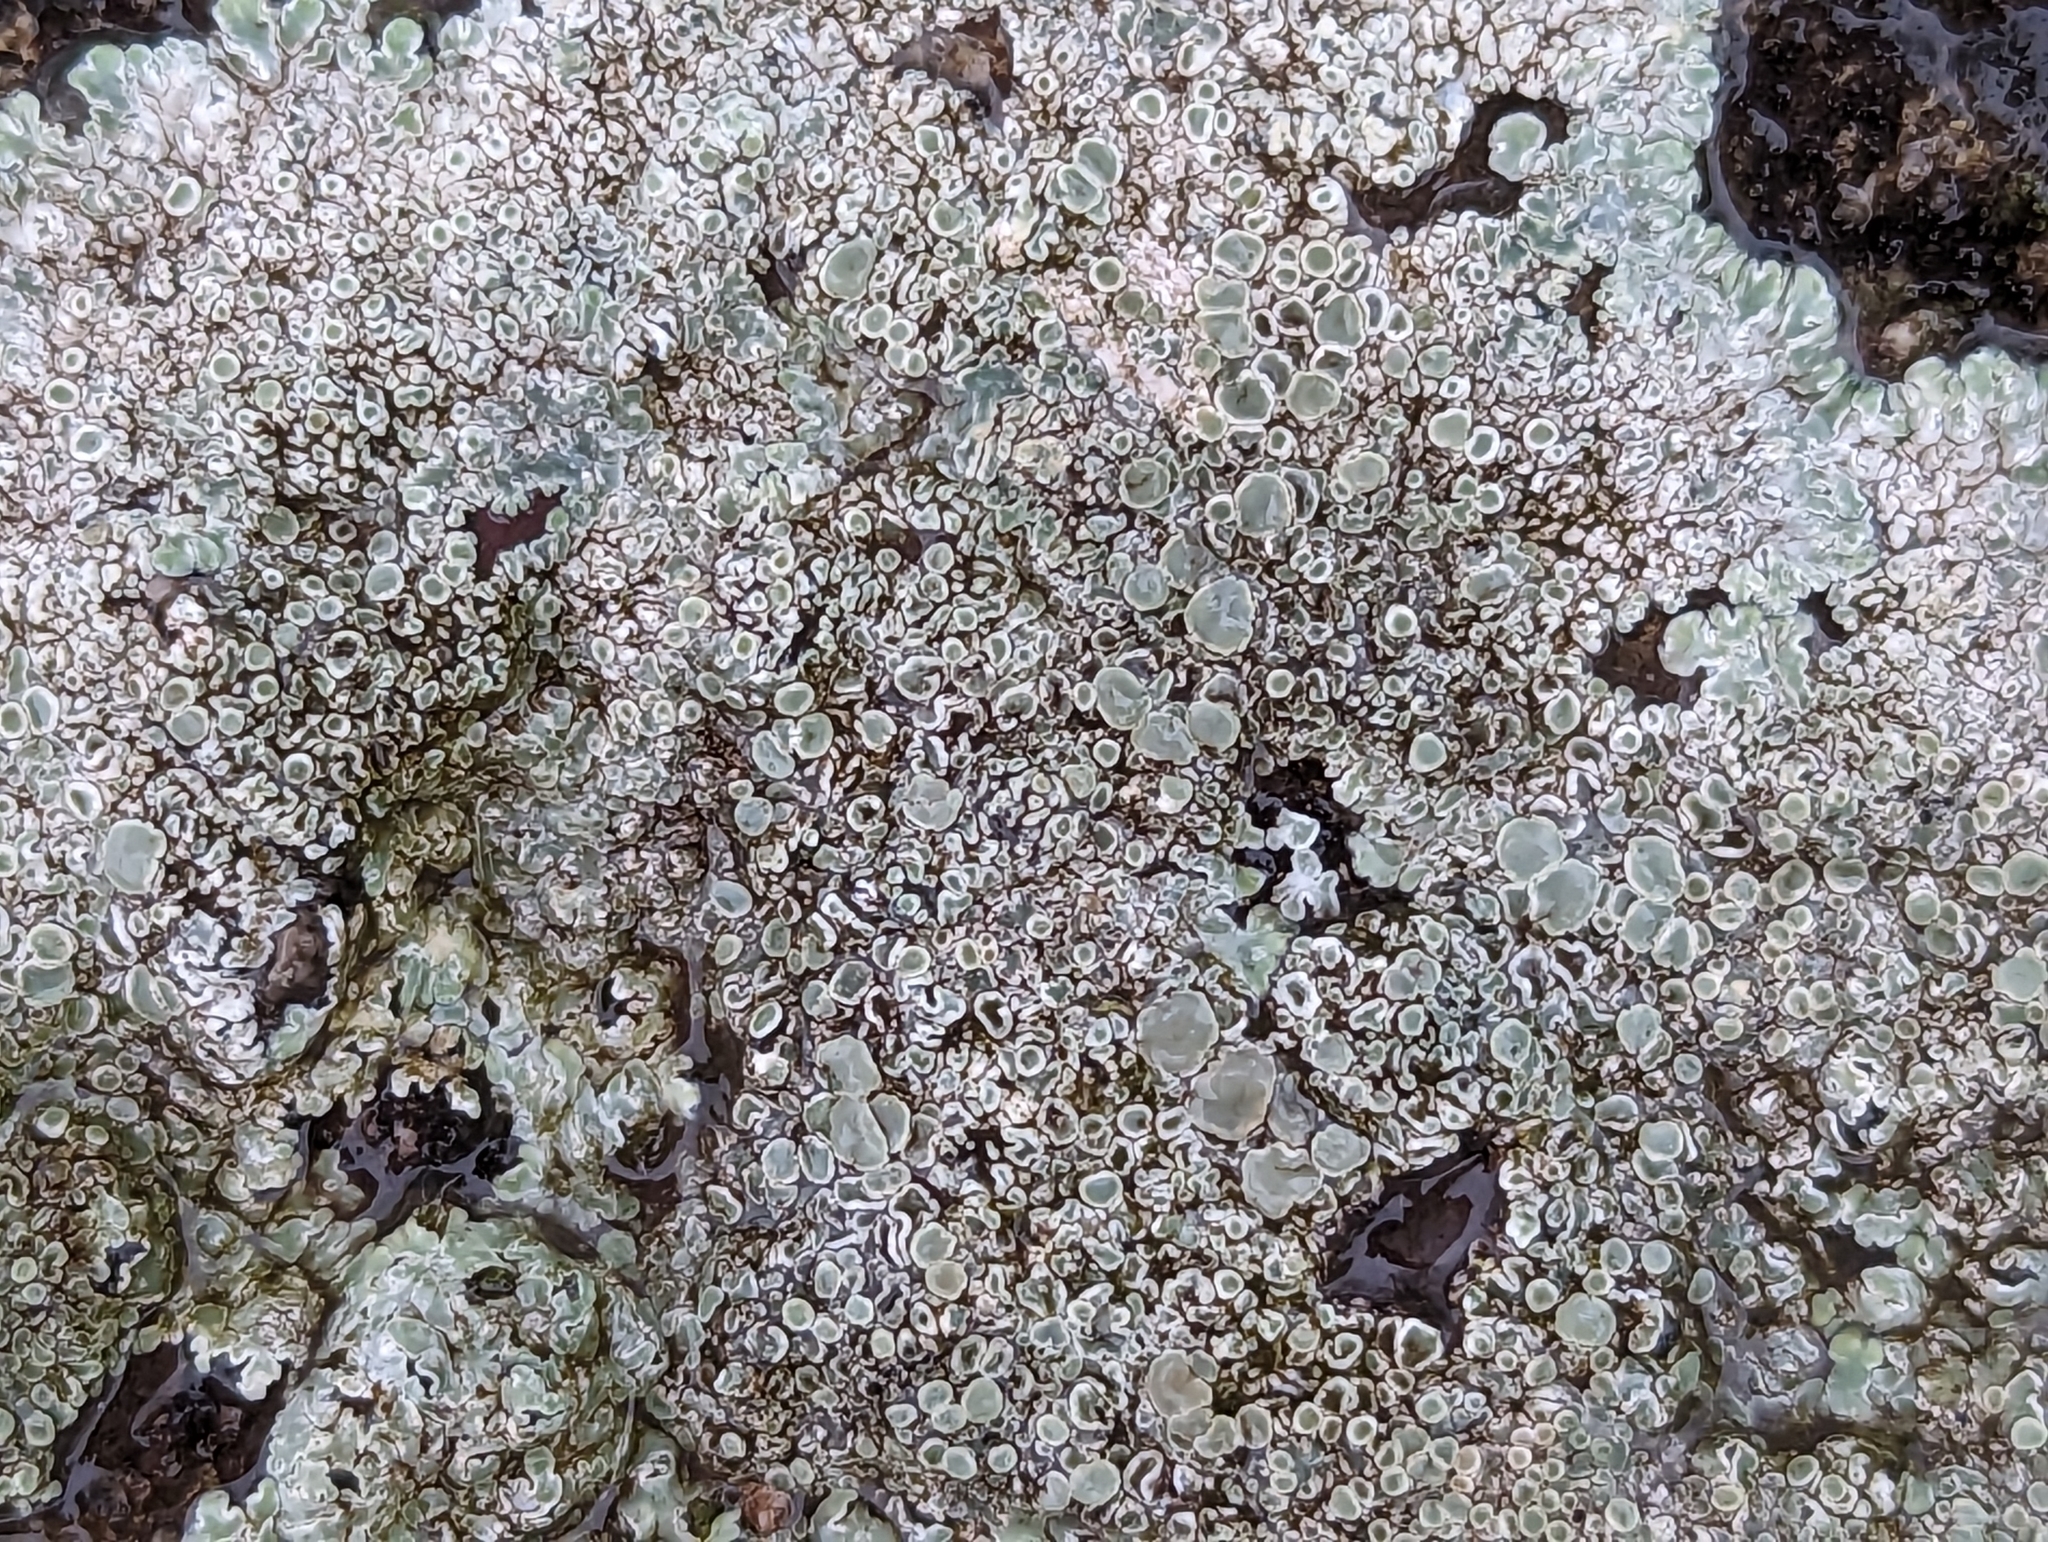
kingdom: Fungi
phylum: Ascomycota
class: Lecanoromycetes
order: Lecanorales
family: Lecanoraceae
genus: Protoparmeliopsis
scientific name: Protoparmeliopsis muralis
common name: Stonewall rim lichen
